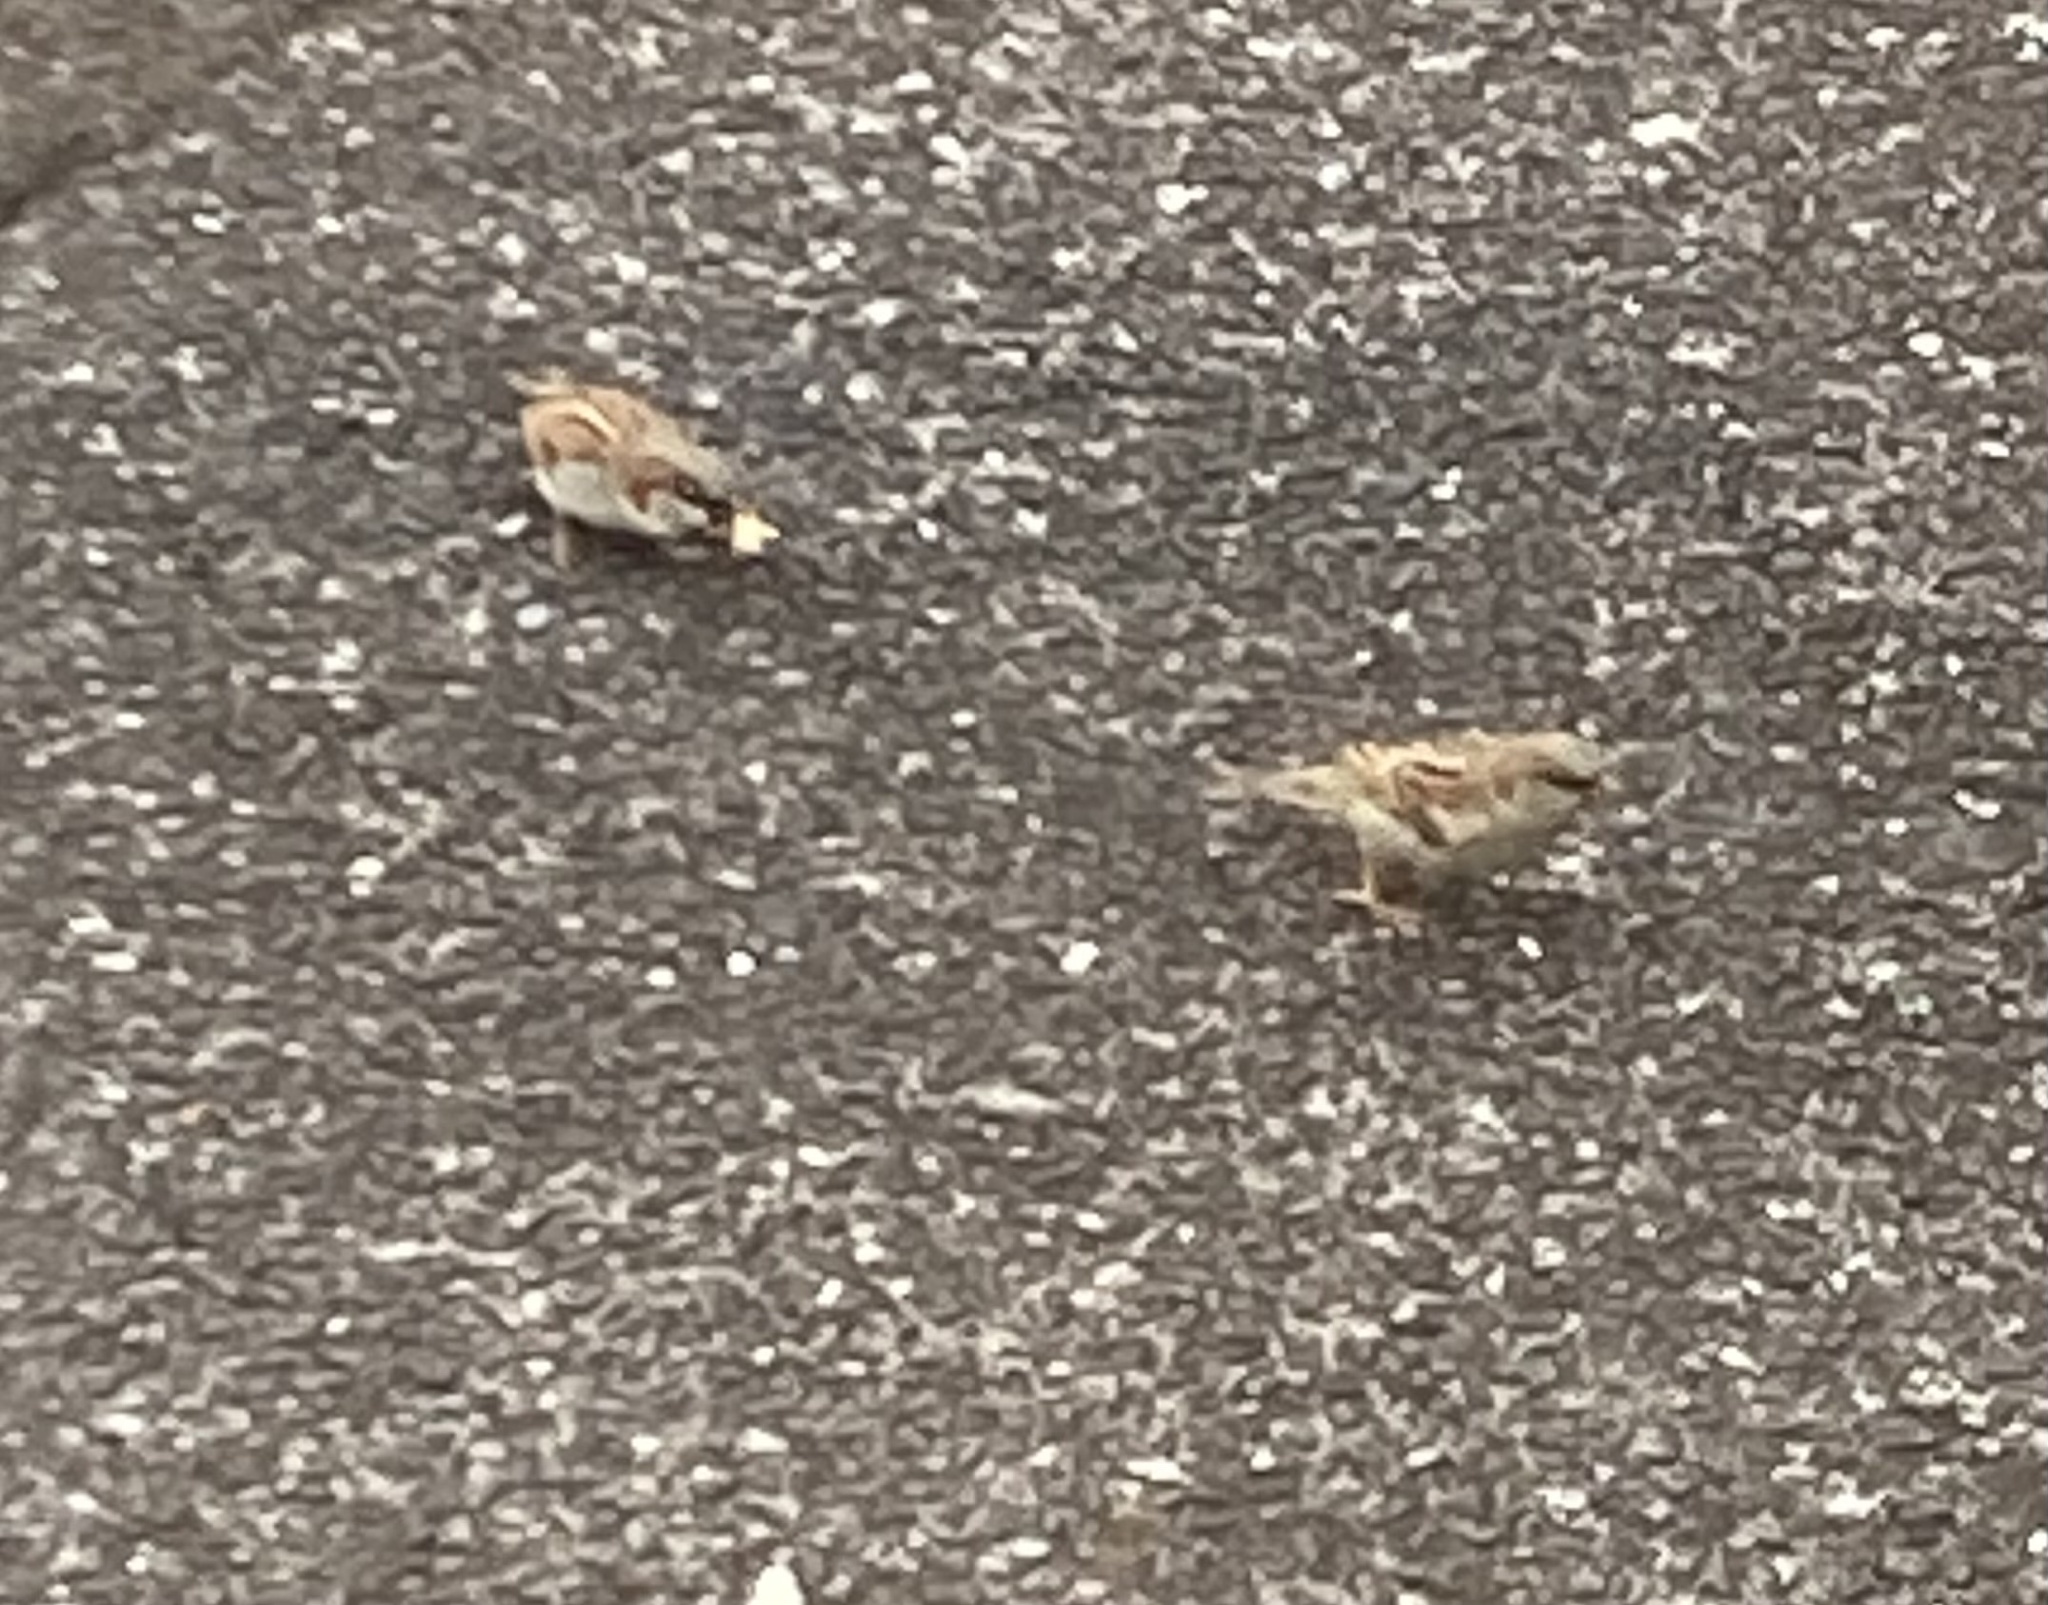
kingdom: Animalia
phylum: Chordata
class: Aves
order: Passeriformes
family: Passeridae
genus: Passer
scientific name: Passer domesticus
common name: House sparrow
